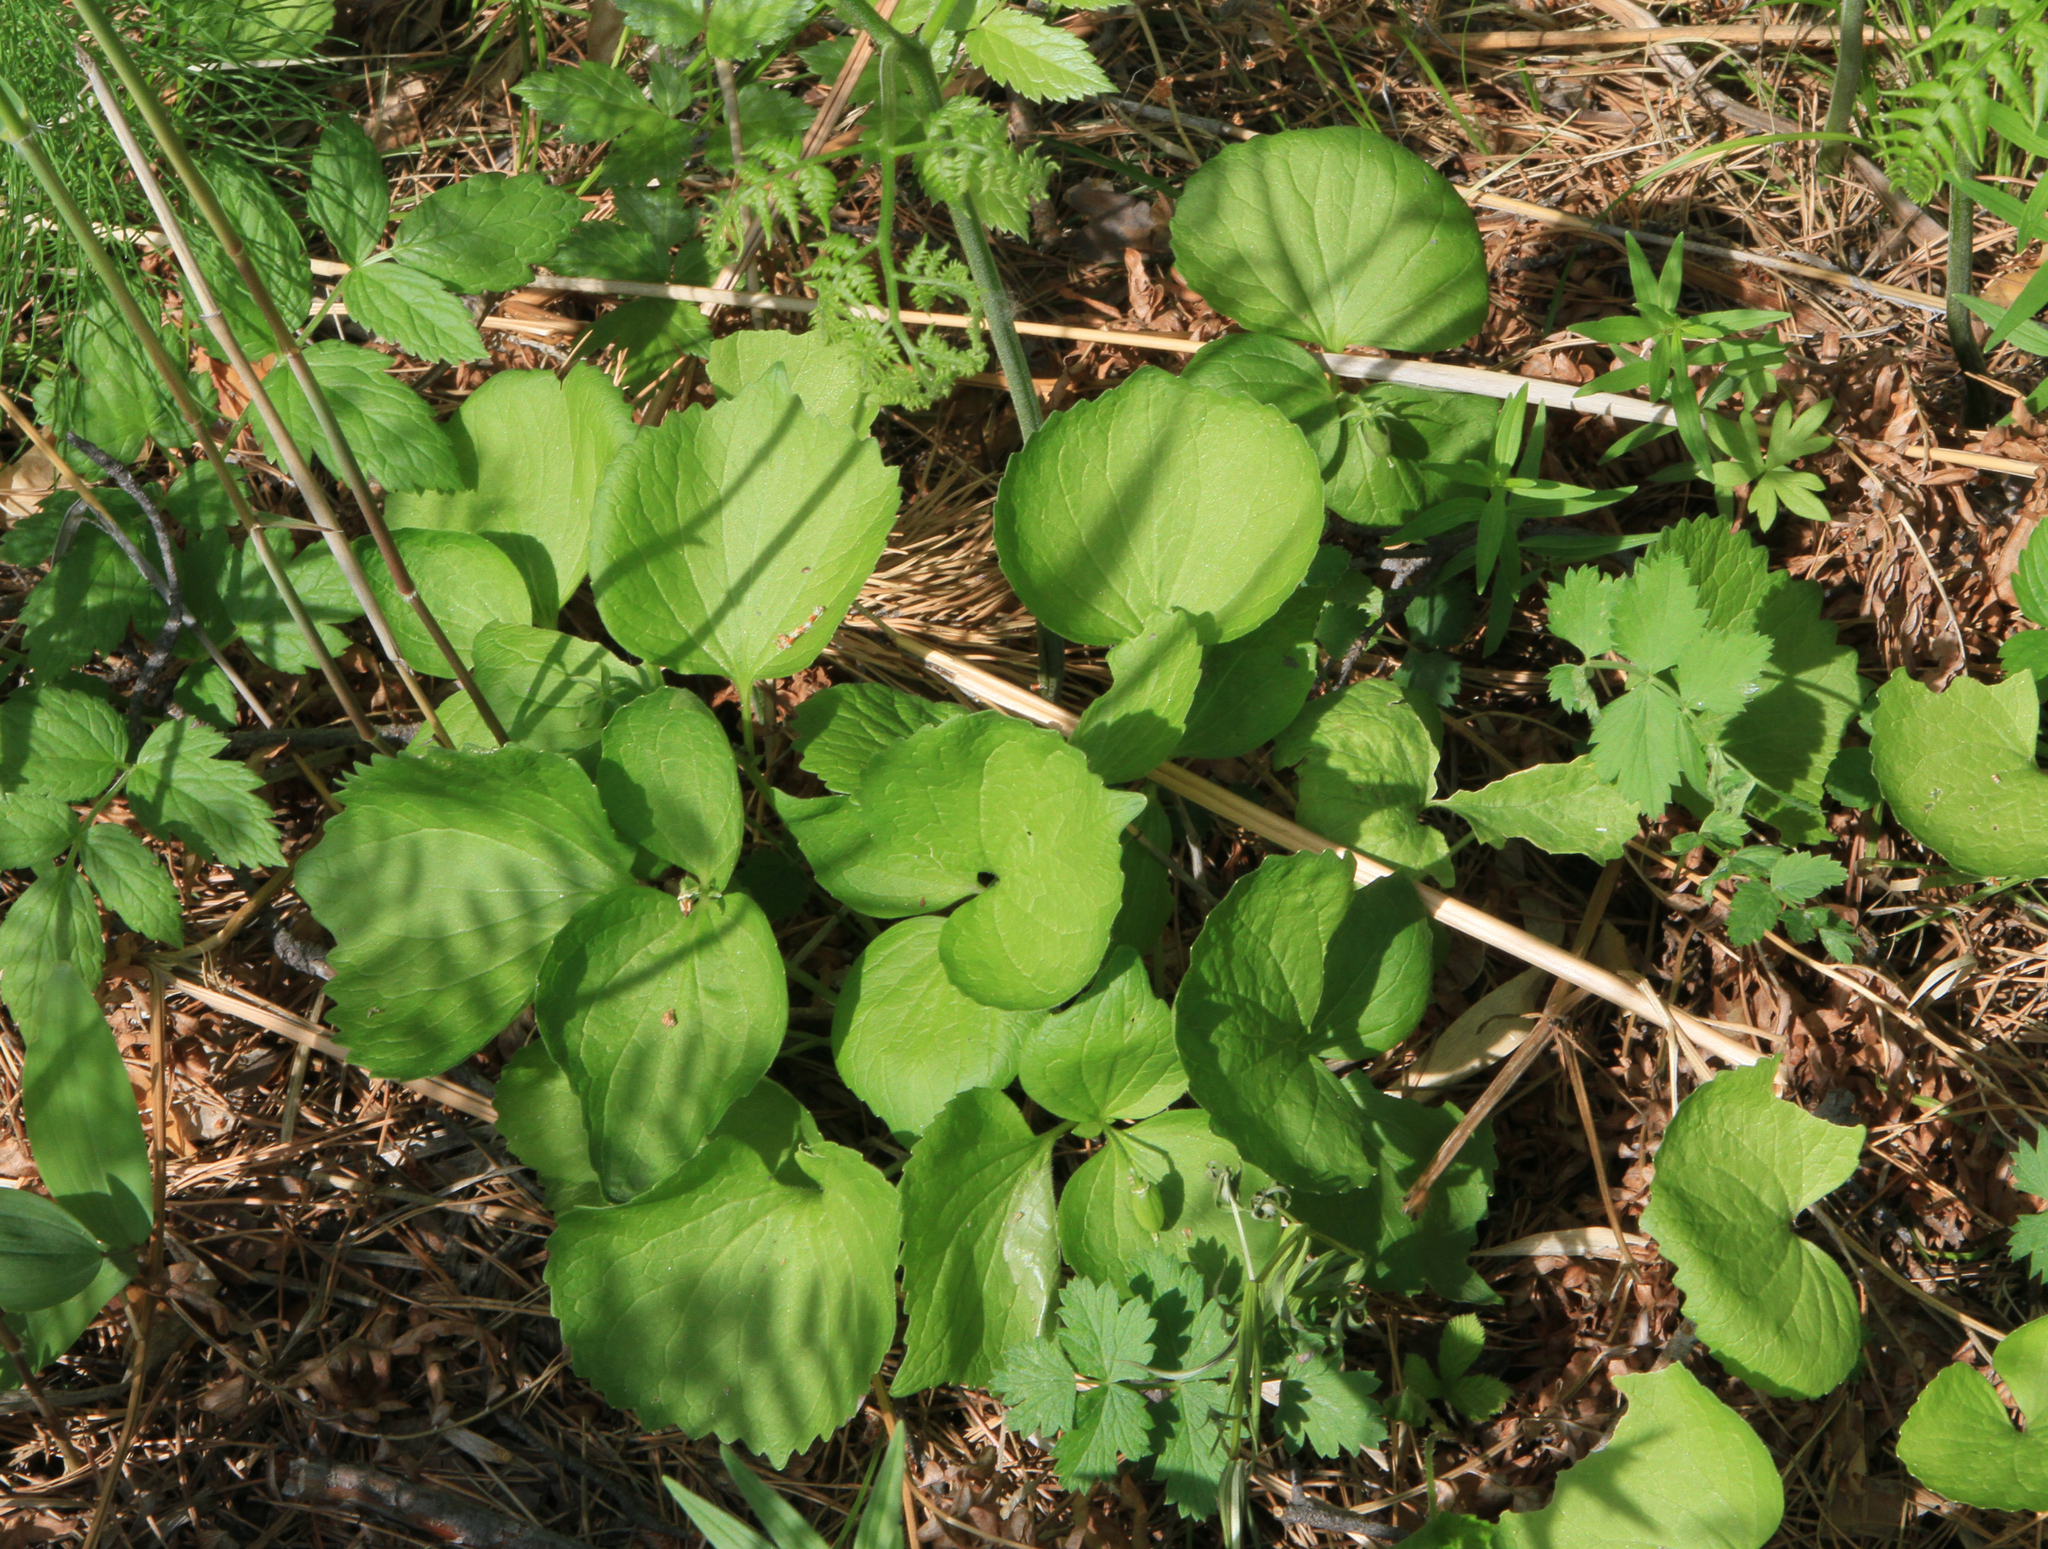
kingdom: Plantae
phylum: Tracheophyta
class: Magnoliopsida
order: Malpighiales
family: Violaceae
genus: Viola
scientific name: Viola uniflora
